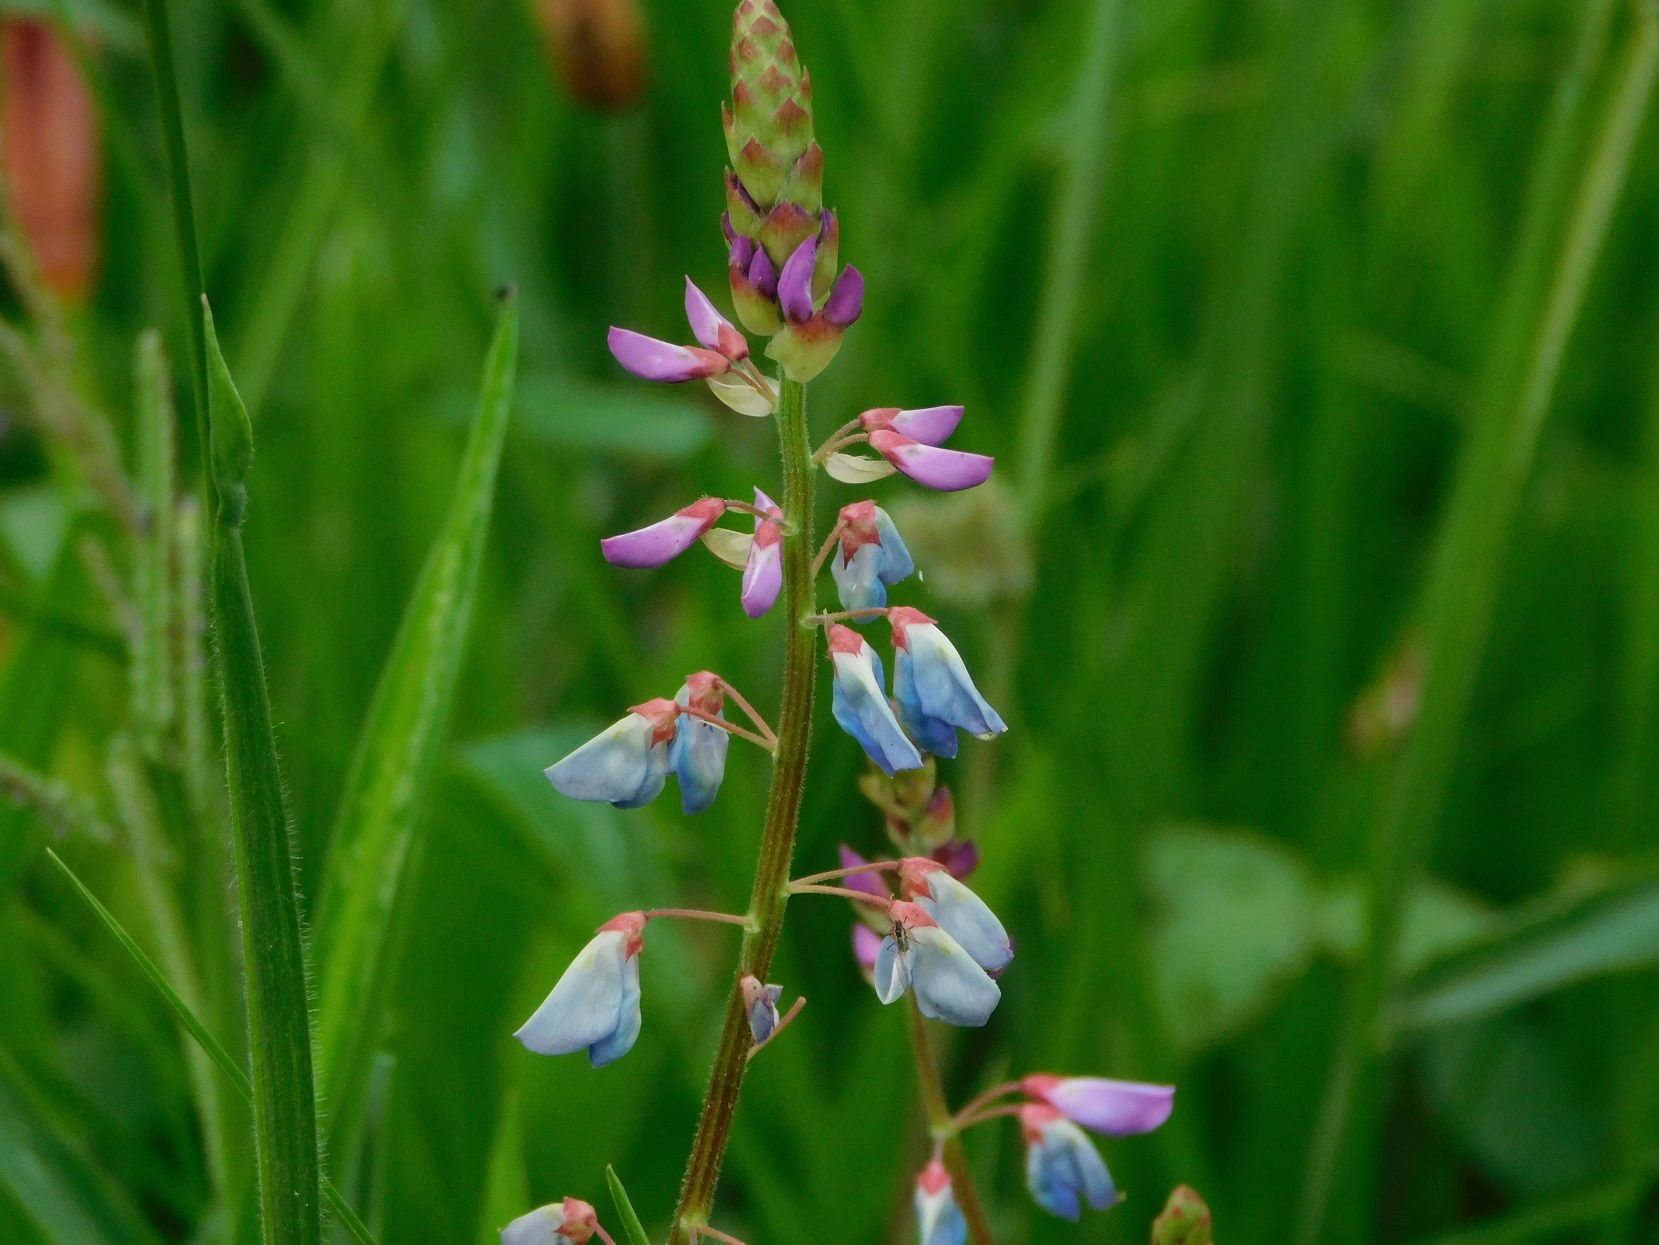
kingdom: Plantae
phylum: Tracheophyta
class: Magnoliopsida
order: Fabales
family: Fabaceae
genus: Desmodium
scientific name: Desmodium pringlei
